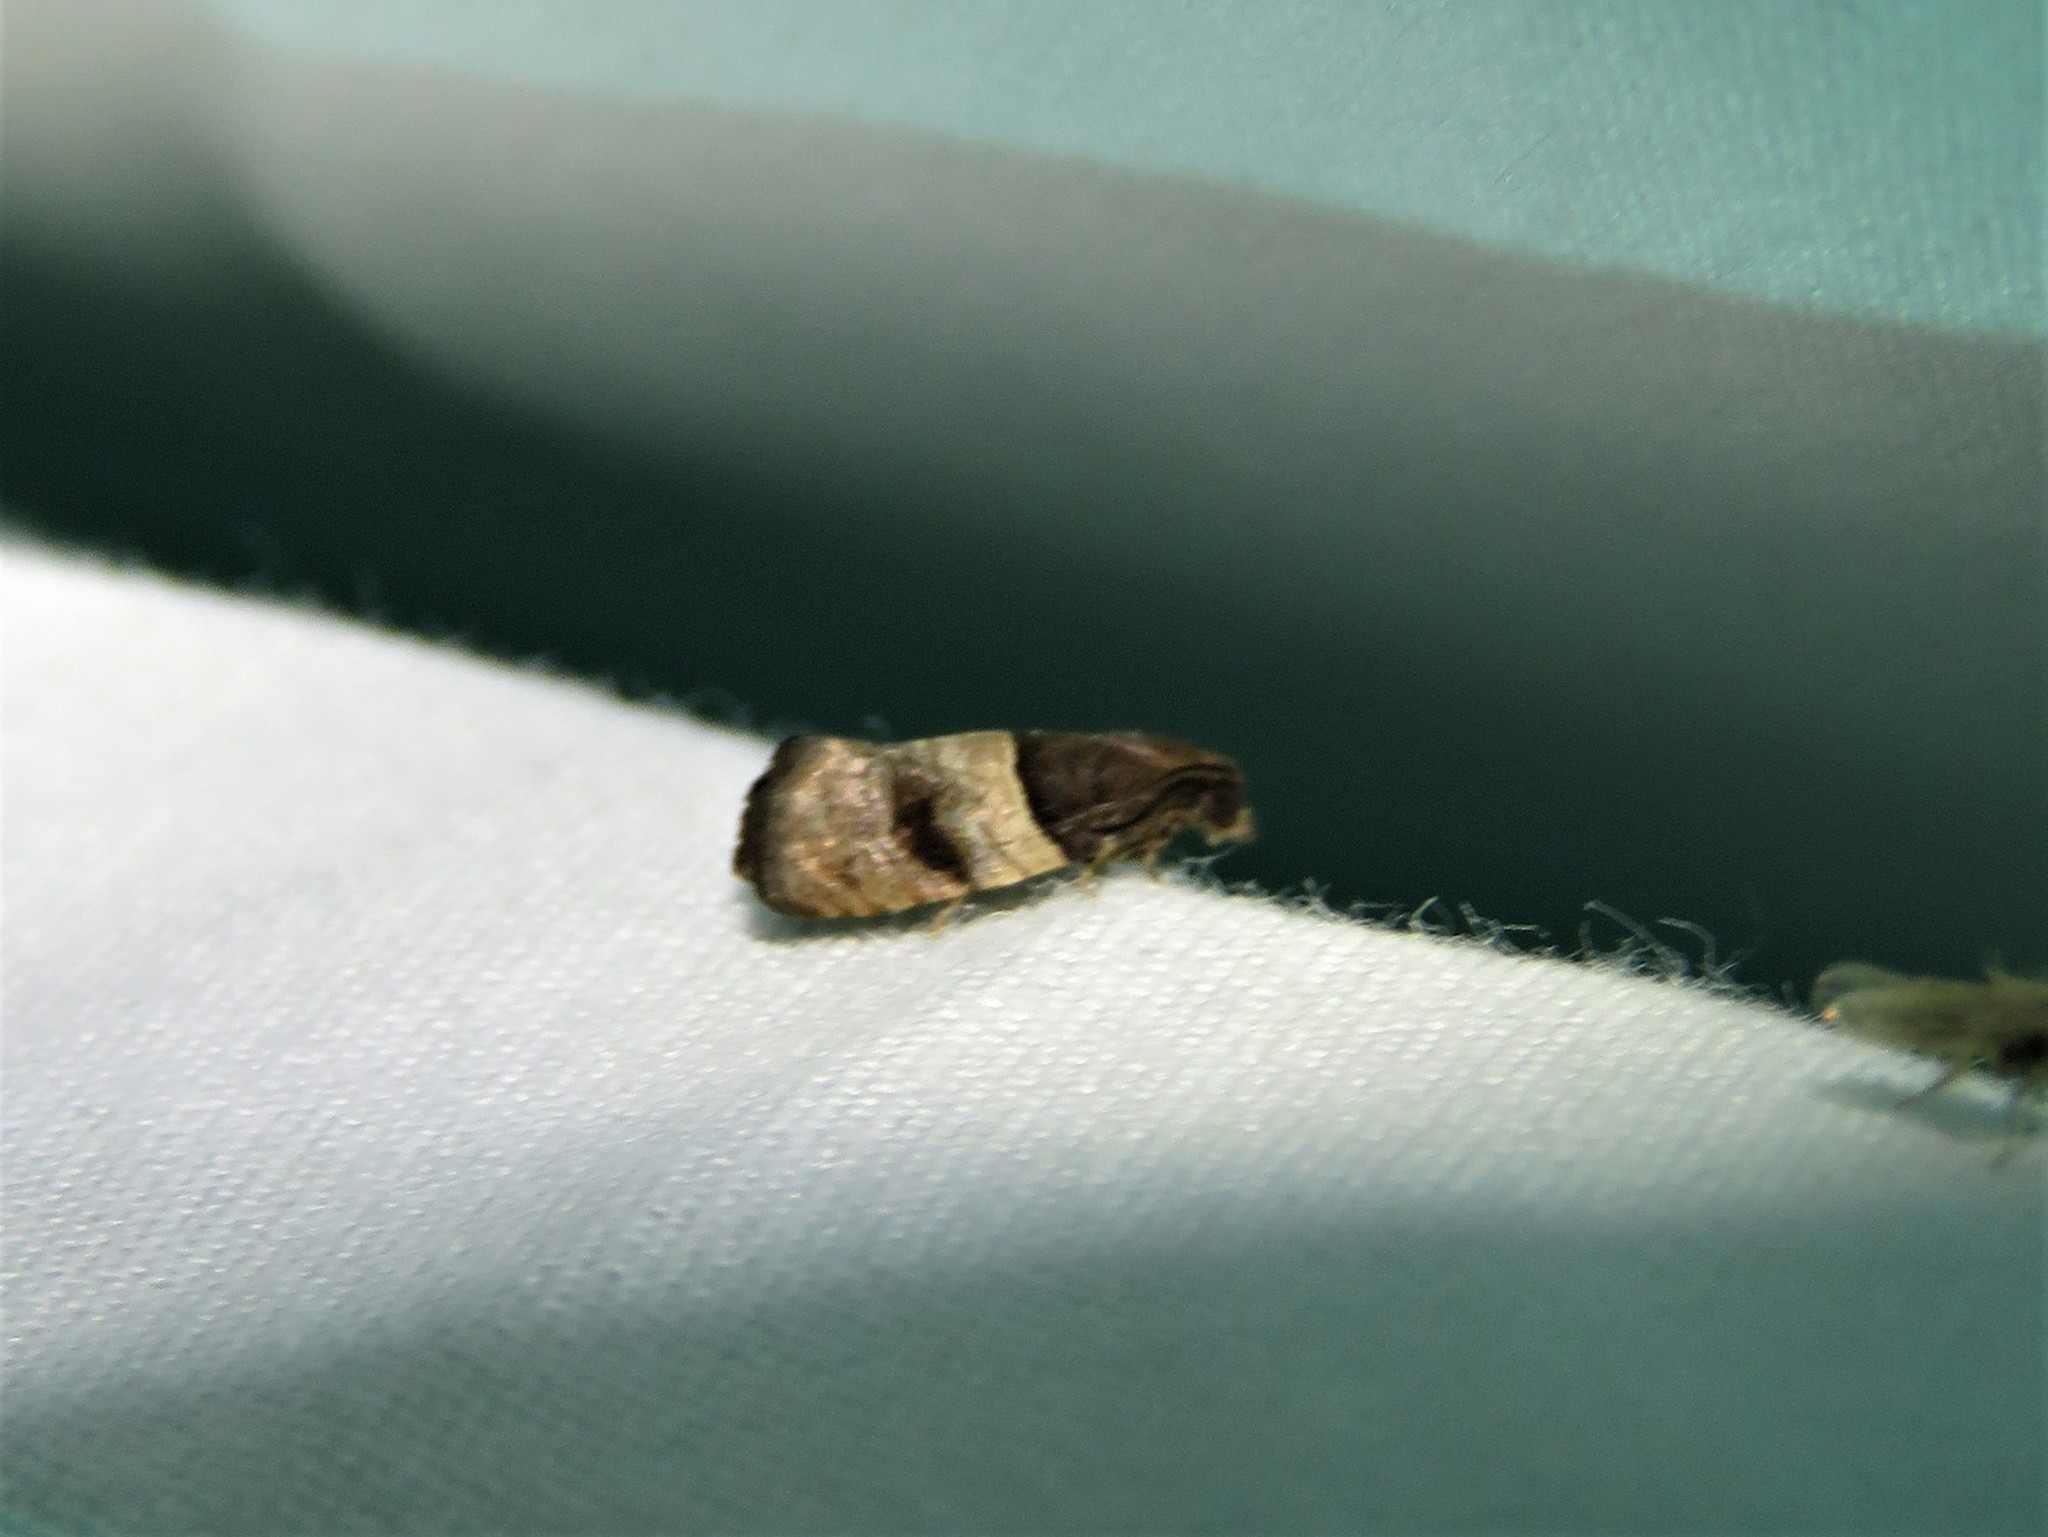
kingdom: Animalia
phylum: Arthropoda
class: Insecta
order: Lepidoptera
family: Tortricidae
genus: Larisa
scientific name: Larisa subsolana
